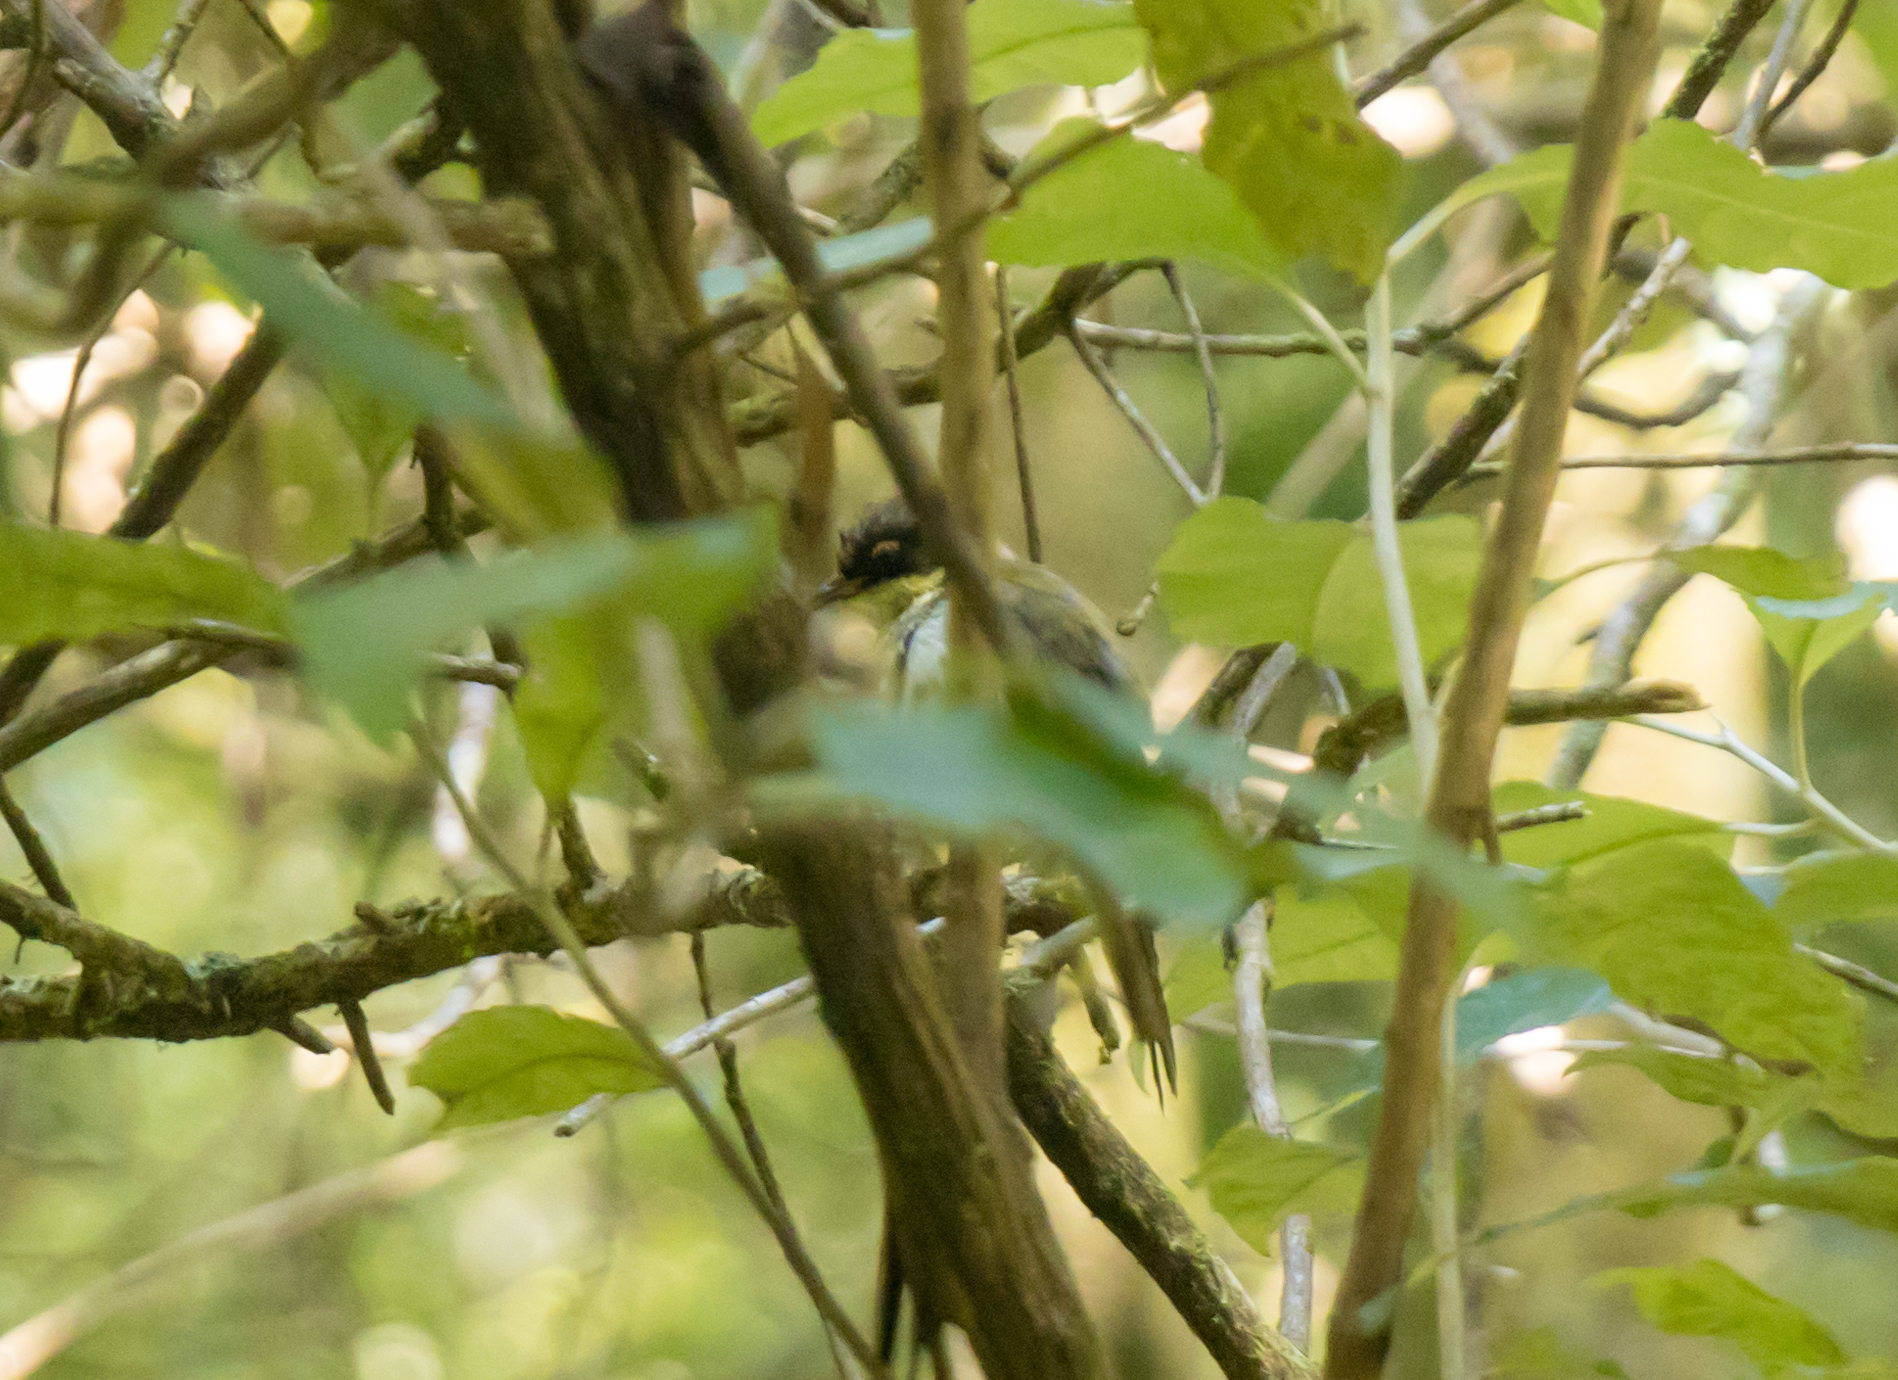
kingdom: Animalia
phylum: Chordata
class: Aves
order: Passeriformes
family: Meliphagidae
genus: Melithreptus
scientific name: Melithreptus lunatus
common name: White-naped honeyeater
